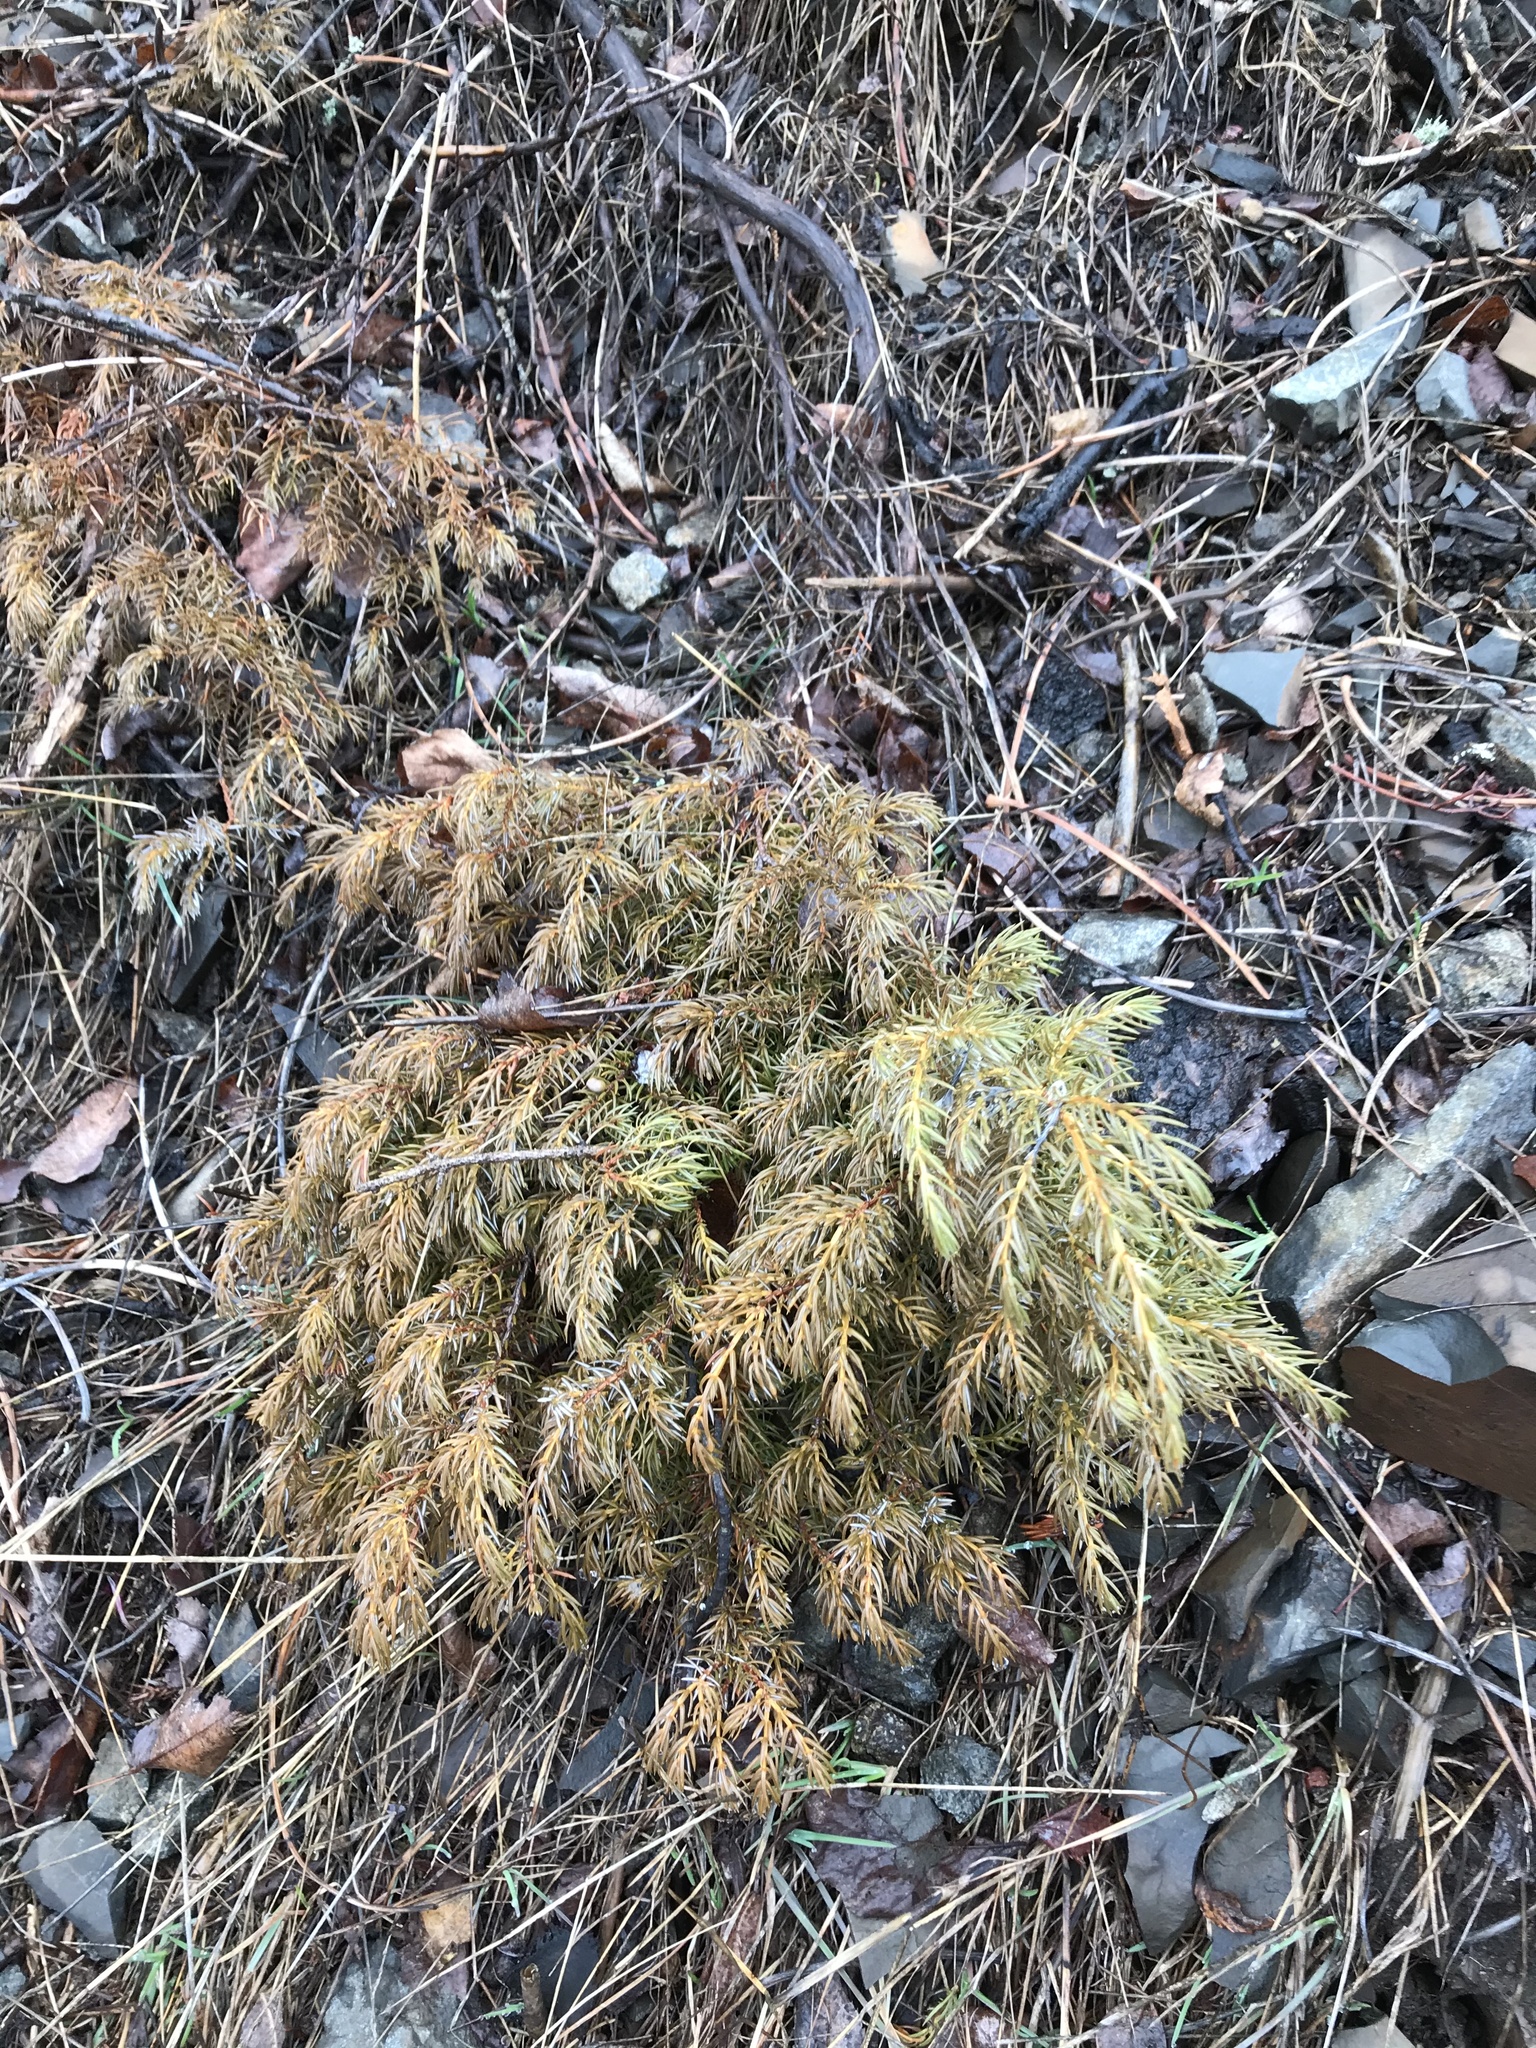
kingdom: Plantae
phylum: Tracheophyta
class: Pinopsida
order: Pinales
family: Cupressaceae
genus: Juniperus
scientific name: Juniperus communis
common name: Common juniper
